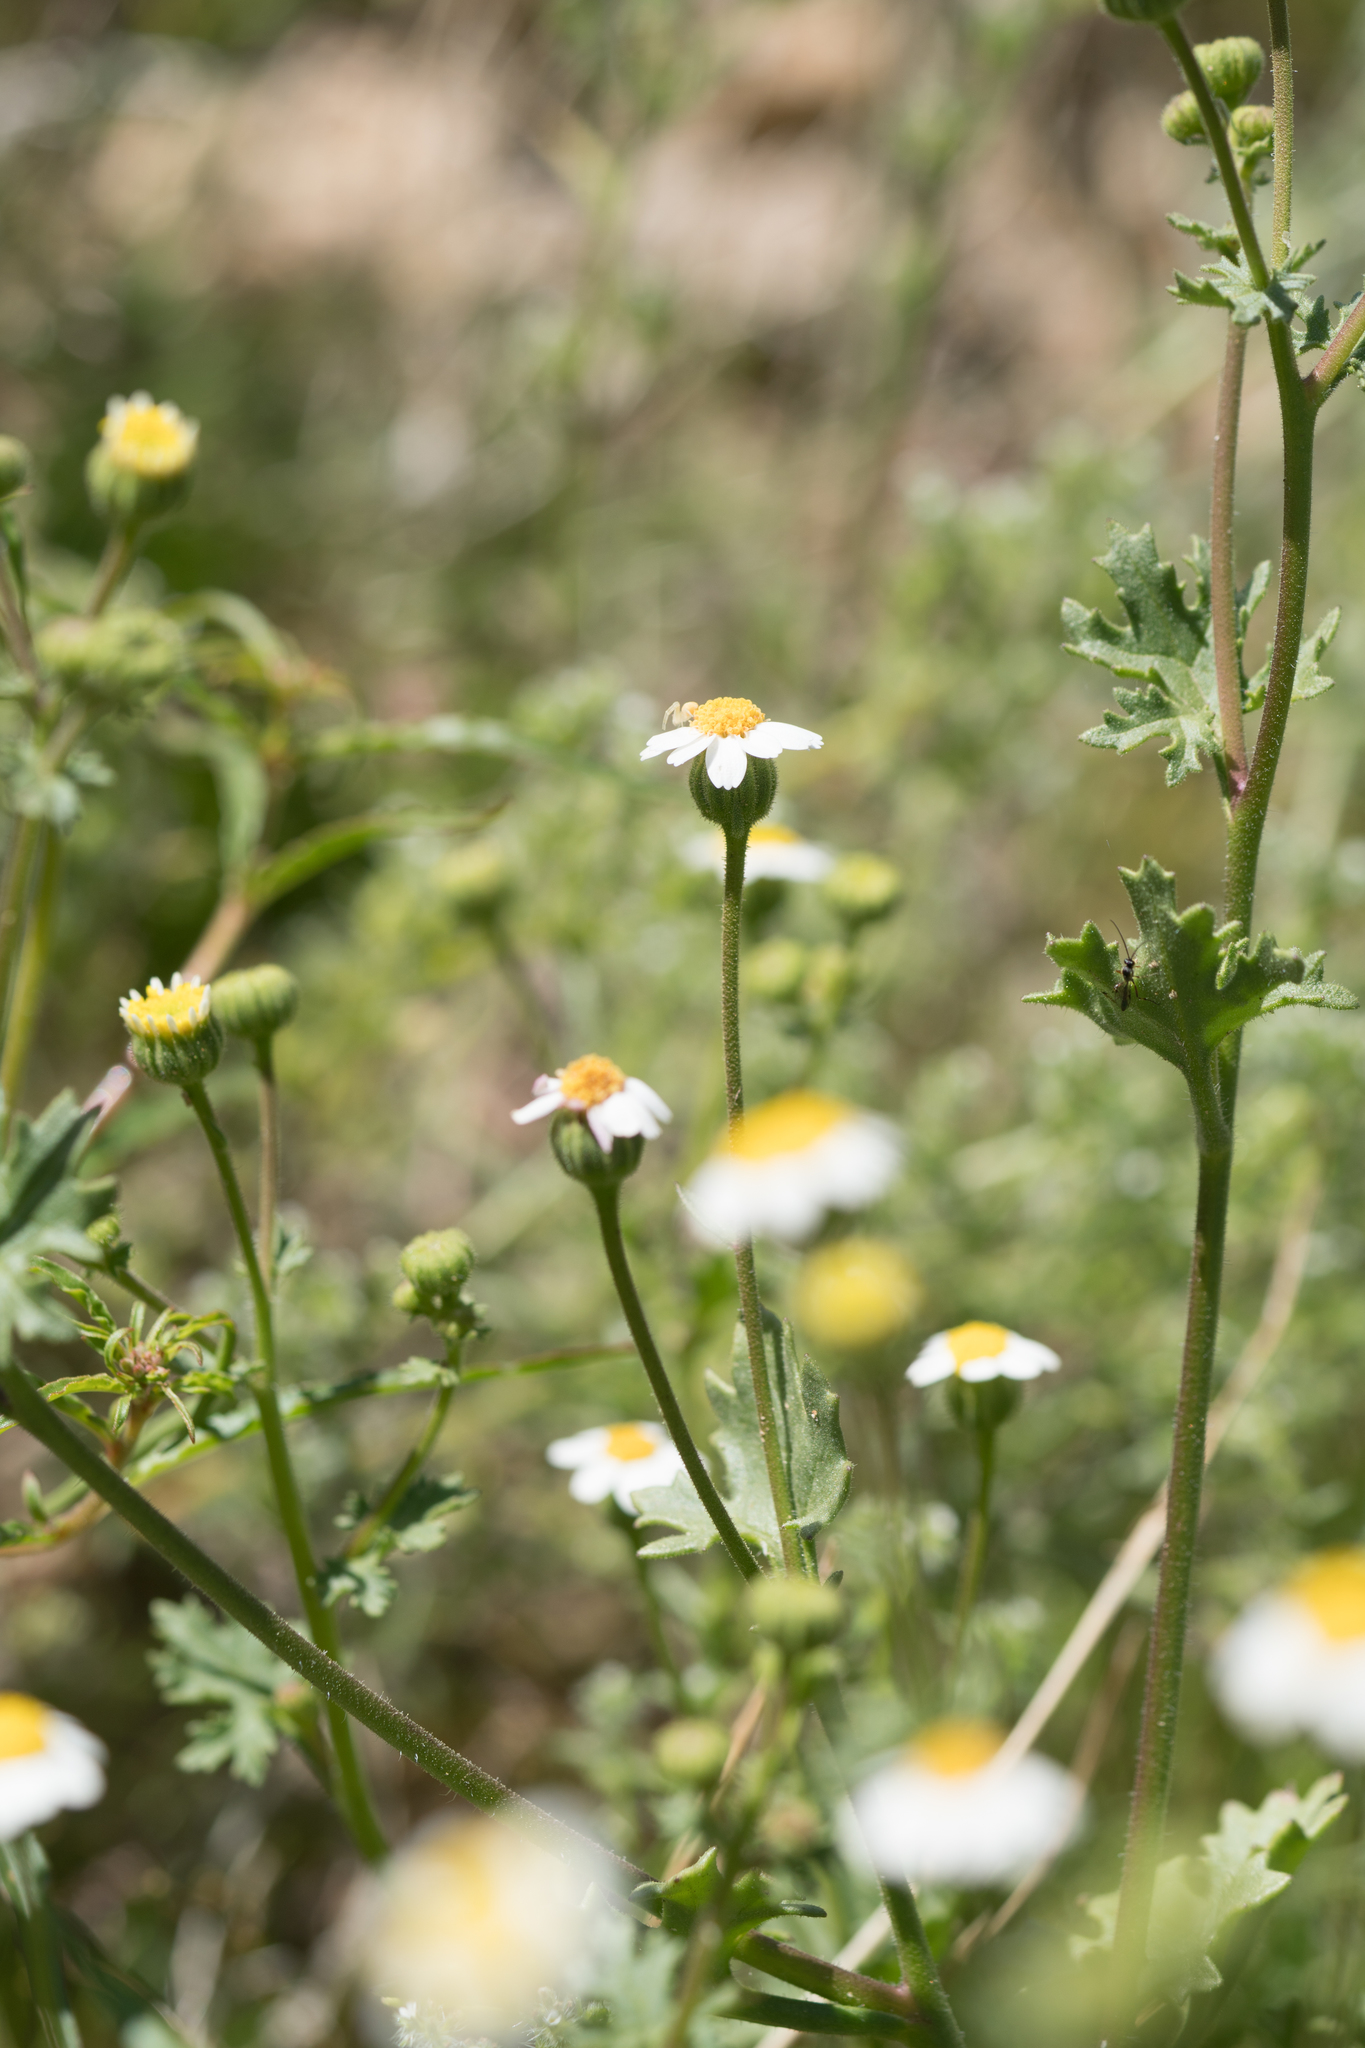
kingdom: Plantae
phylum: Tracheophyta
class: Magnoliopsida
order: Asterales
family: Asteraceae
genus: Laphamia
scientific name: Laphamia emoryi
